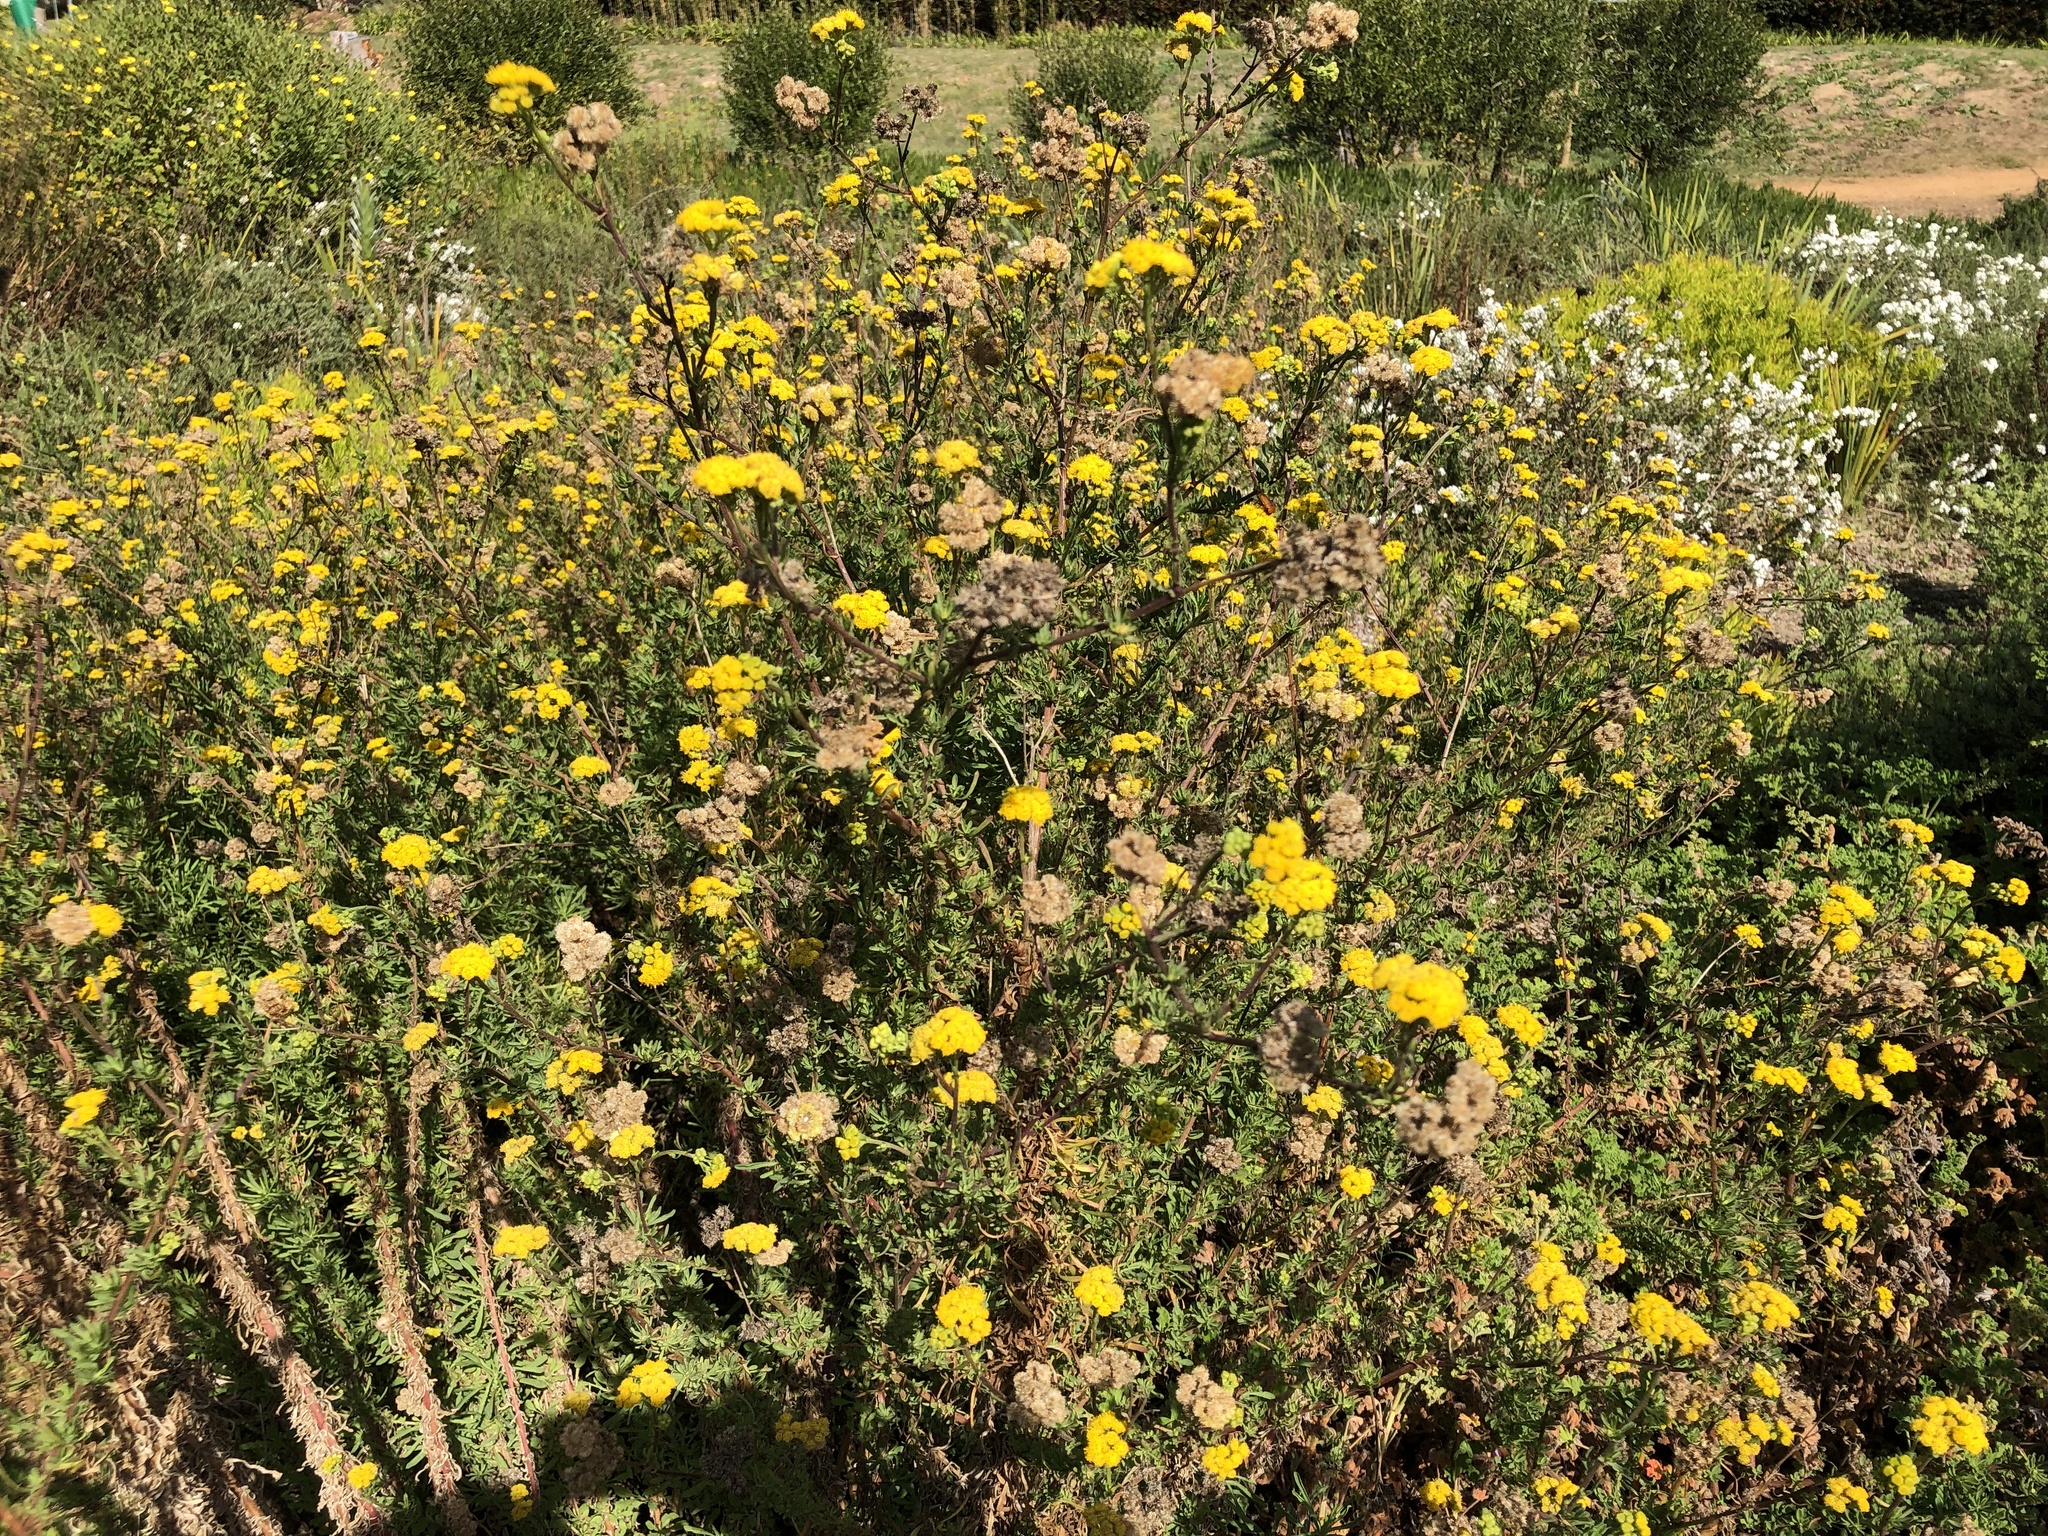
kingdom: Plantae
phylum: Tracheophyta
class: Magnoliopsida
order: Asterales
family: Asteraceae
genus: Nidorella
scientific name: Nidorella foetida
